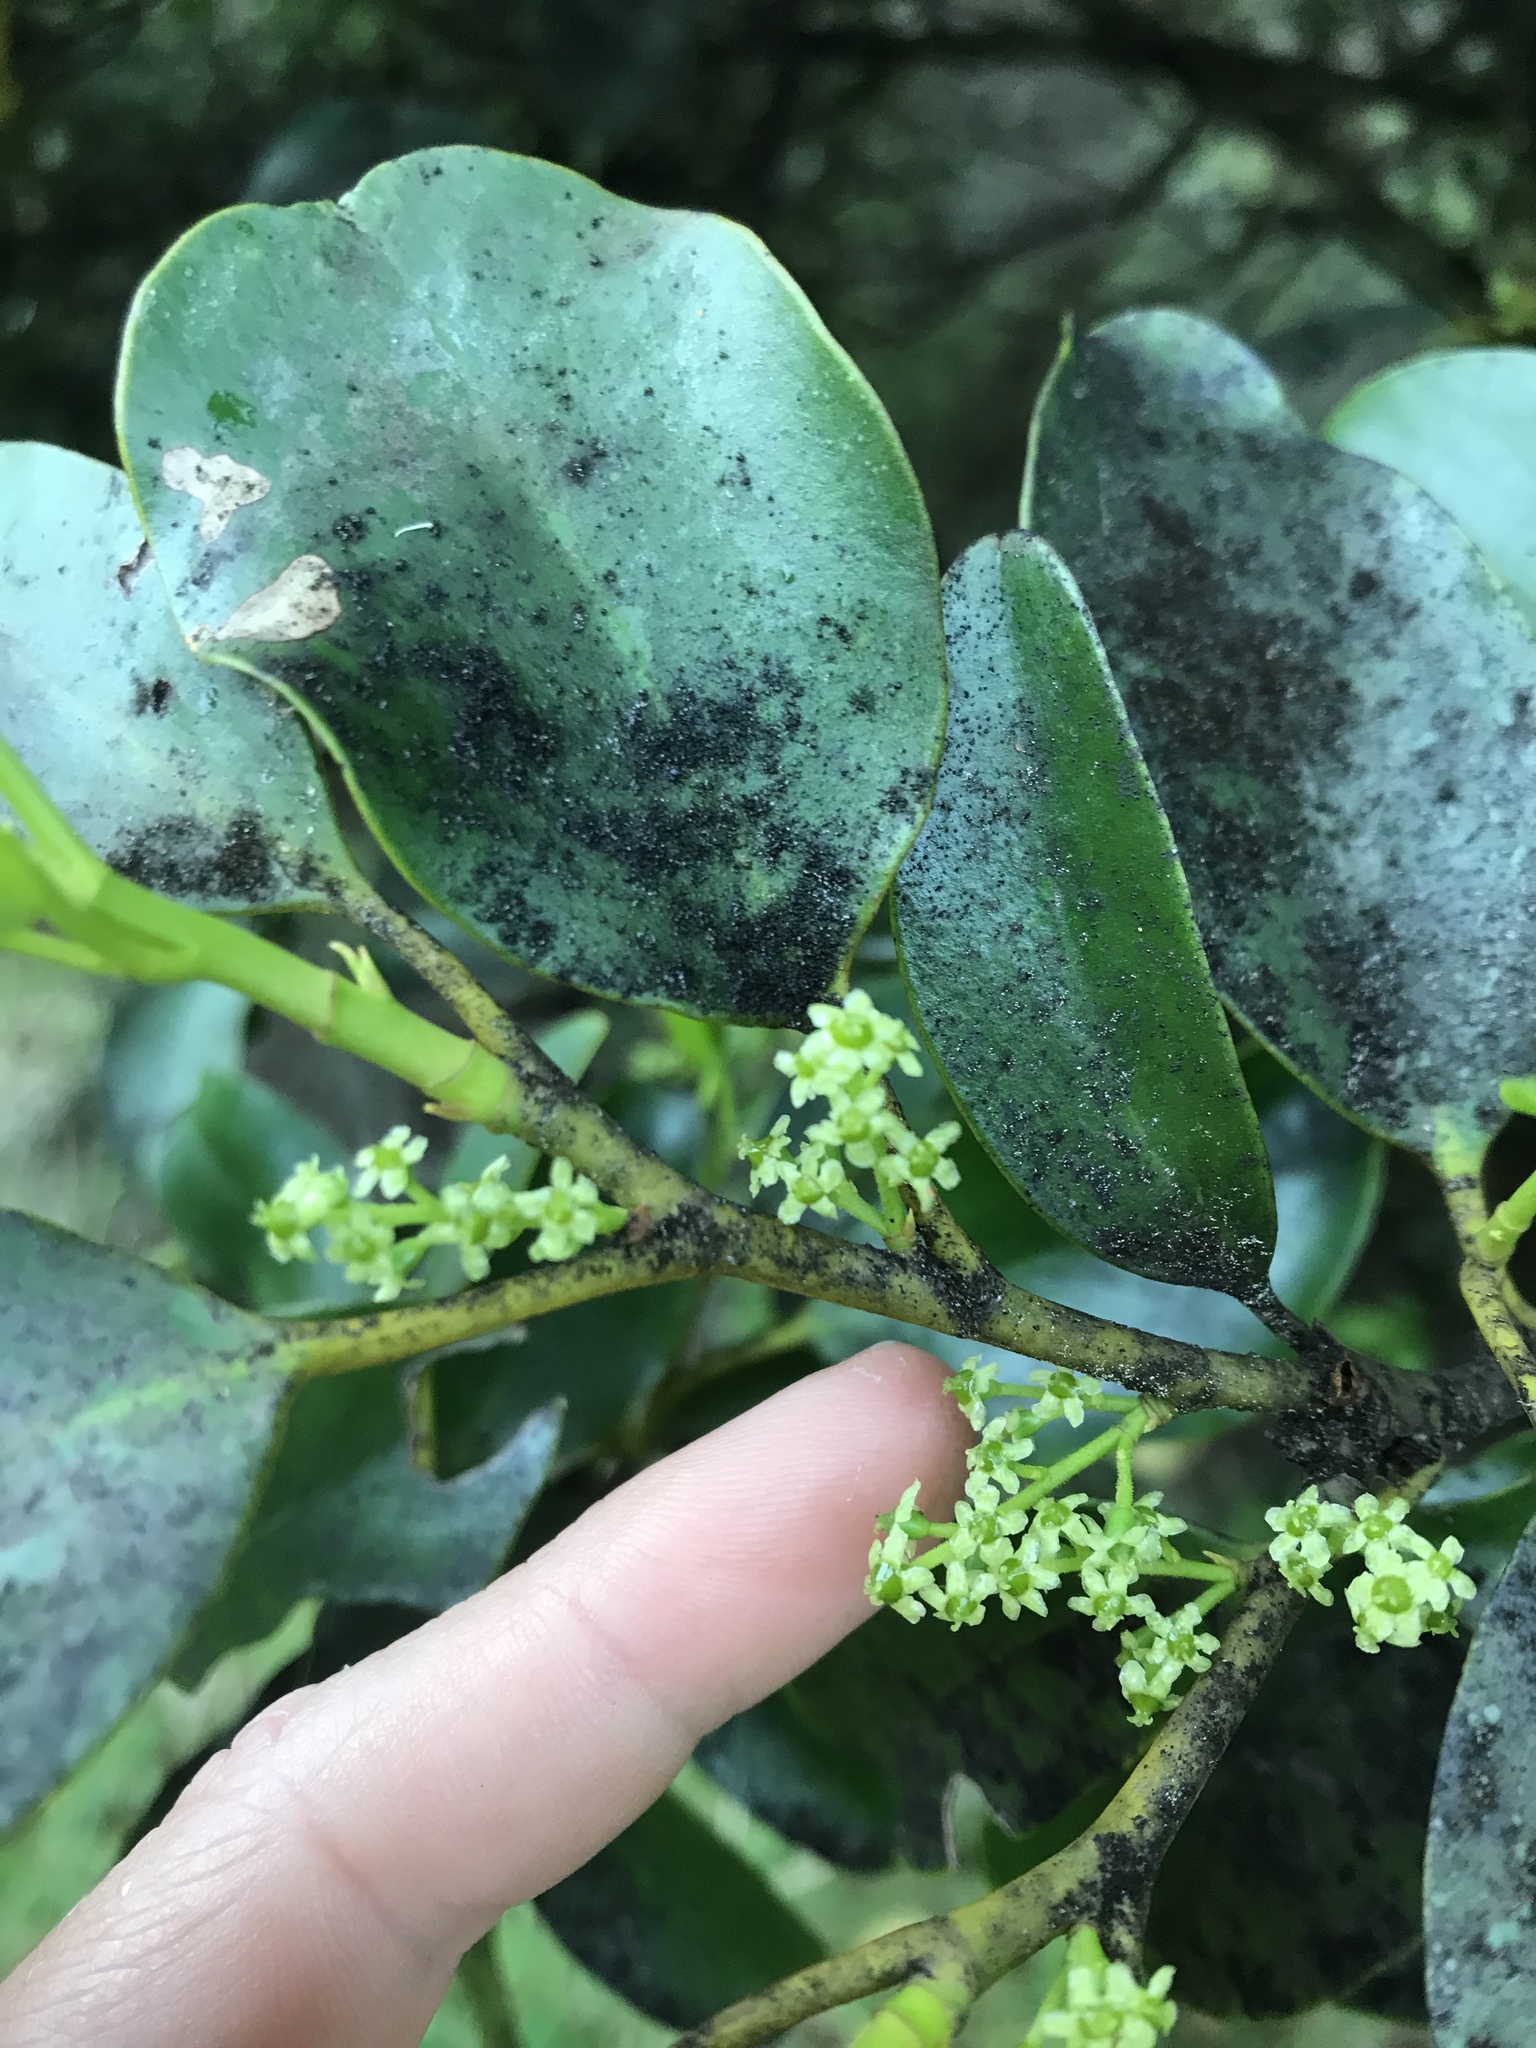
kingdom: Plantae
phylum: Tracheophyta
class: Magnoliopsida
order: Apiales
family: Griseliniaceae
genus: Griselinia
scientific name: Griselinia littoralis
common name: New zealand broadleaf
